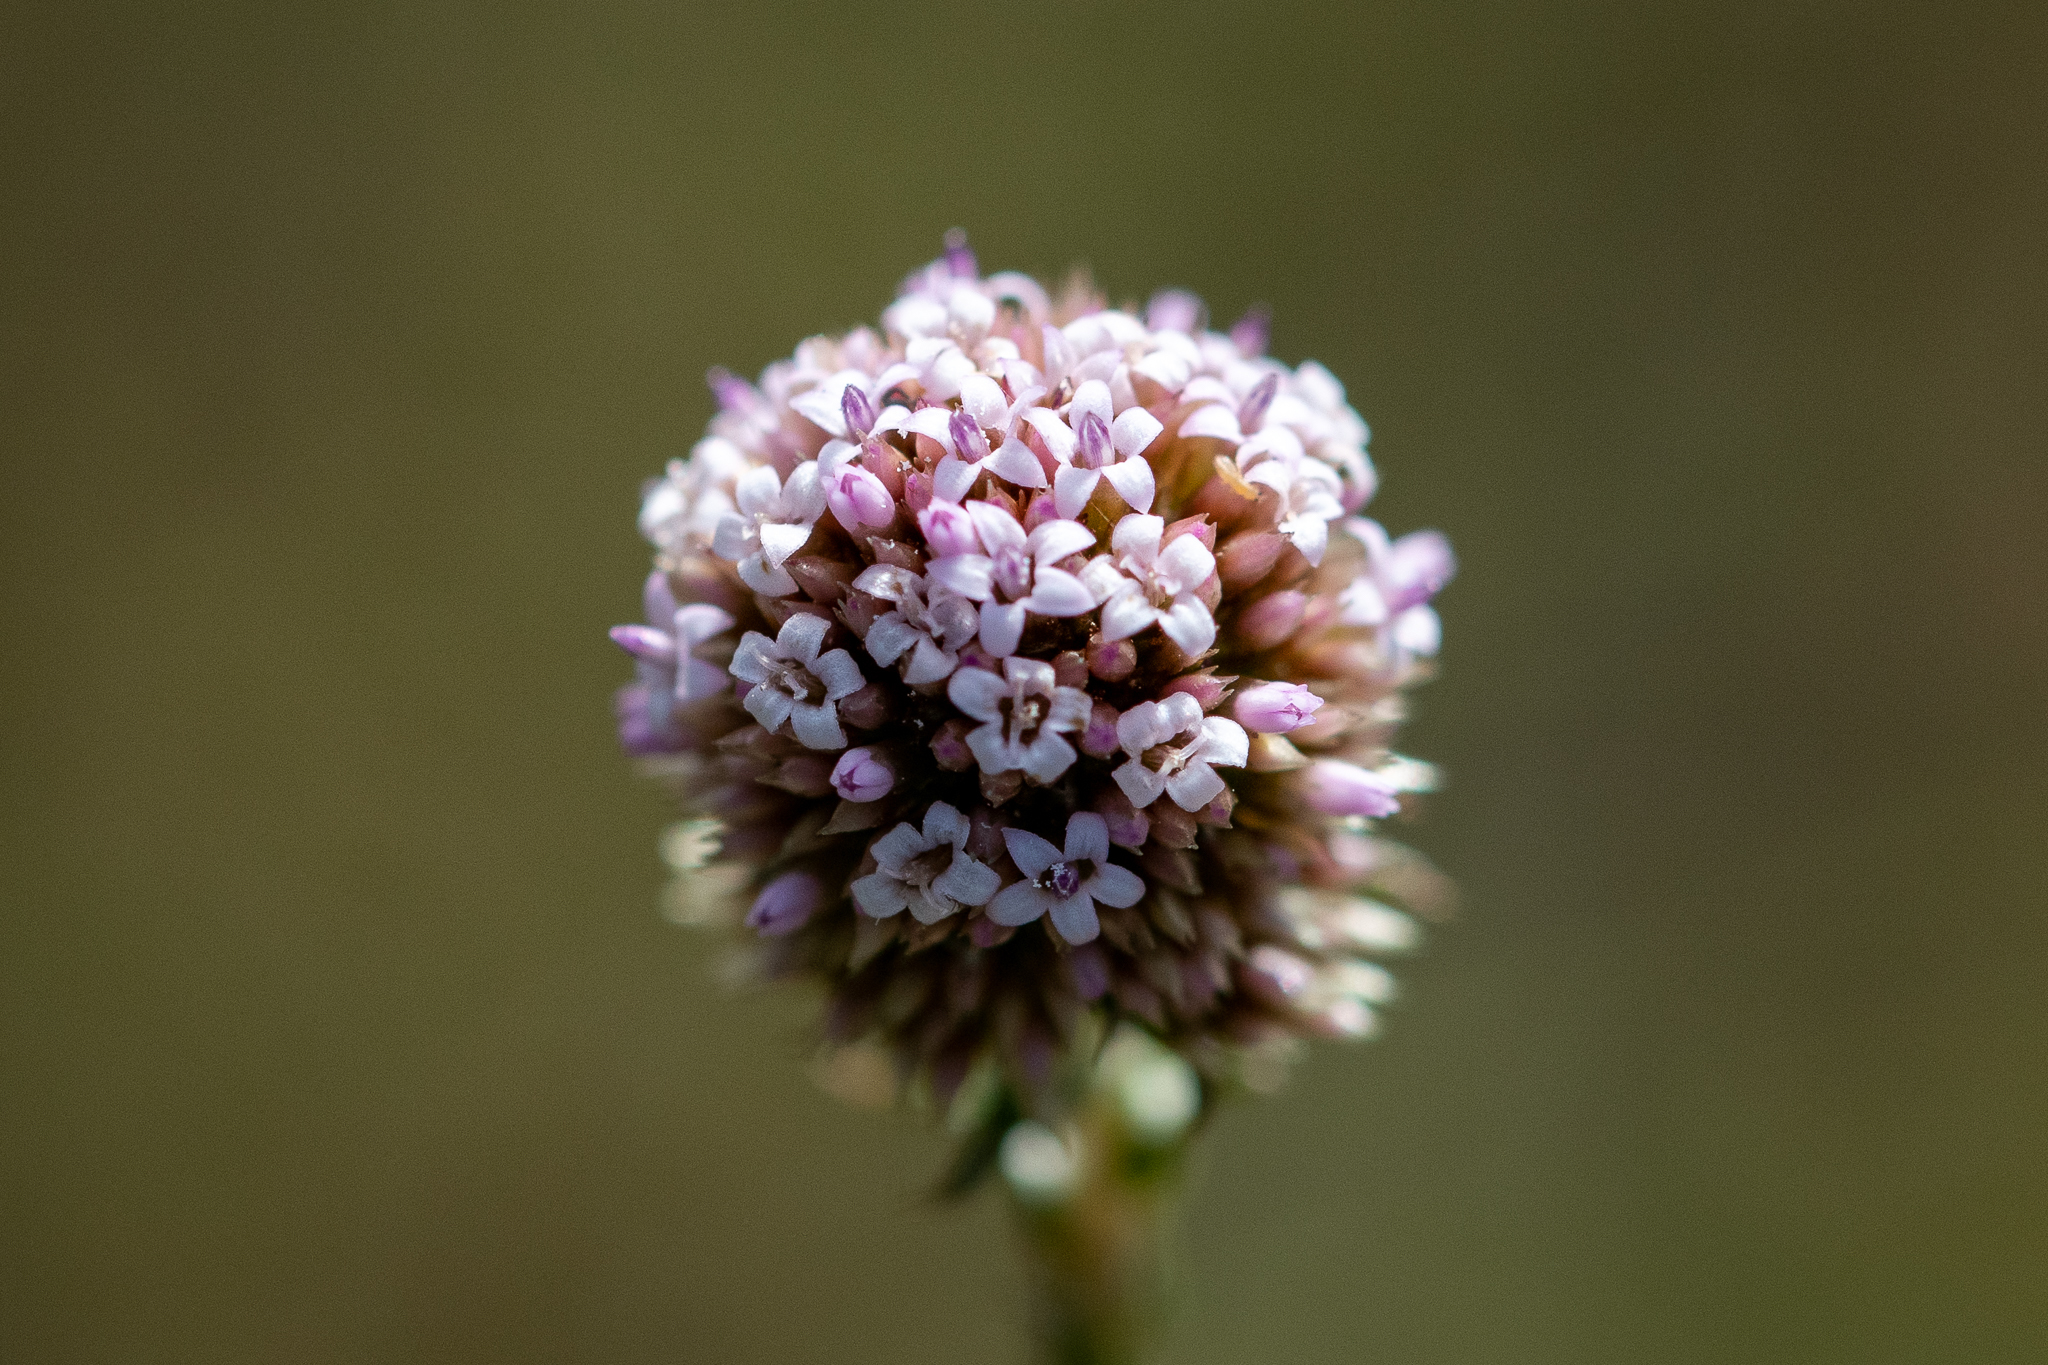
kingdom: Plantae
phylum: Tracheophyta
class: Magnoliopsida
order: Asterales
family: Asteraceae
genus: Stoebe
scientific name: Stoebe capitata
